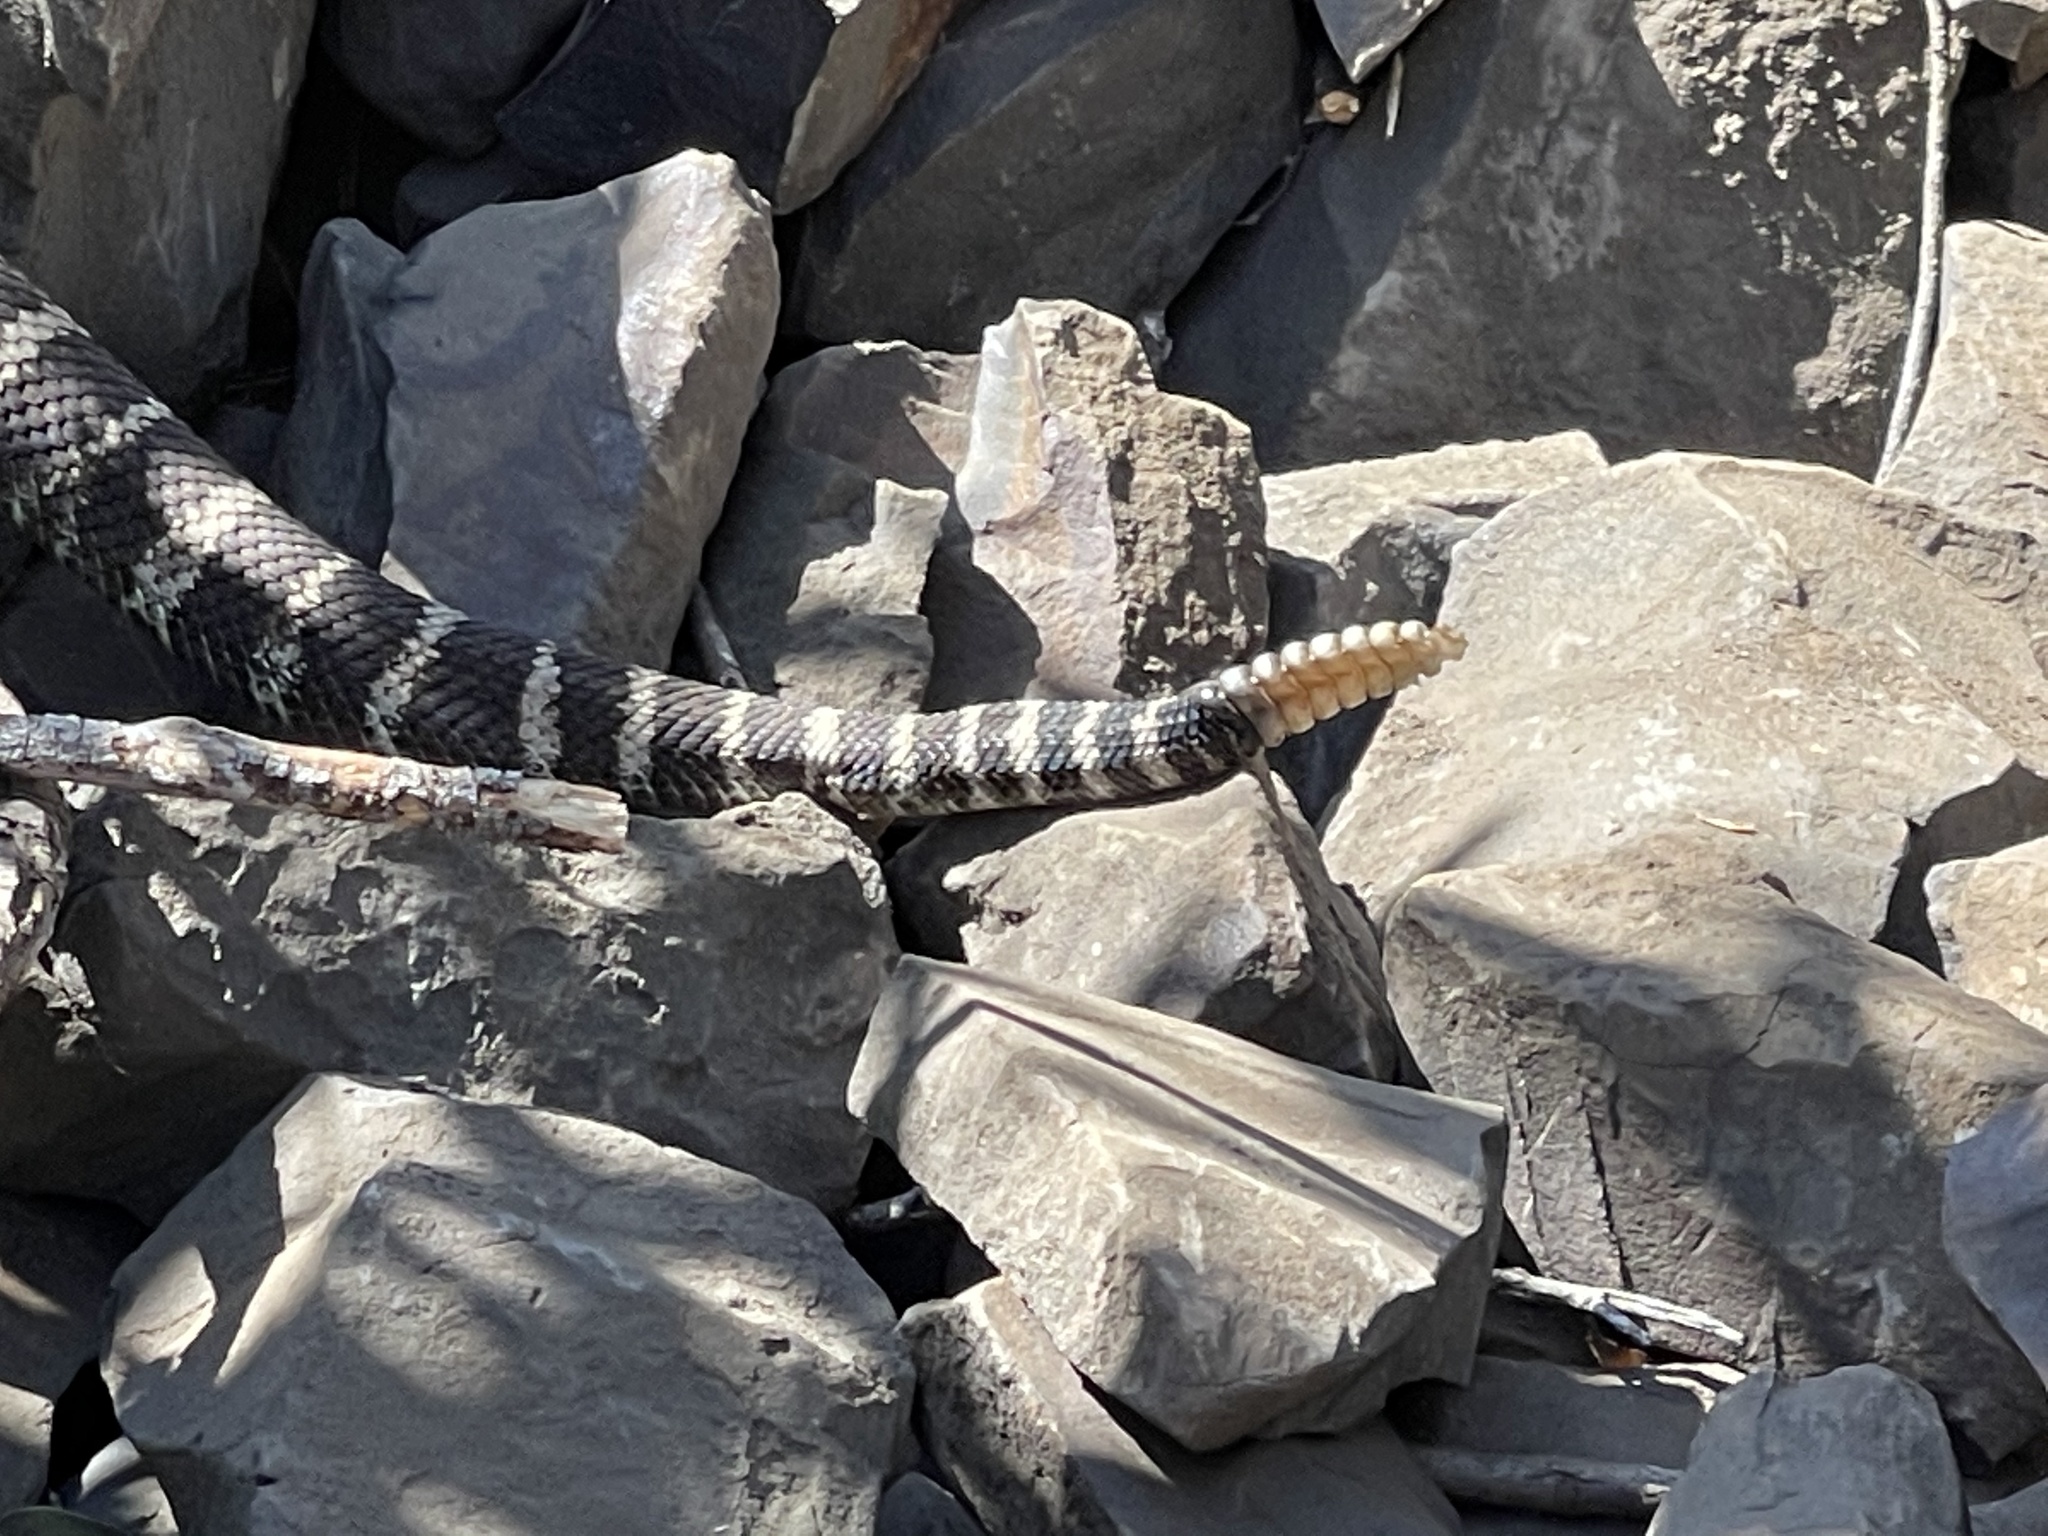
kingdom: Animalia
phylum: Chordata
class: Squamata
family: Viperidae
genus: Crotalus
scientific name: Crotalus oreganus
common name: Abyssus
